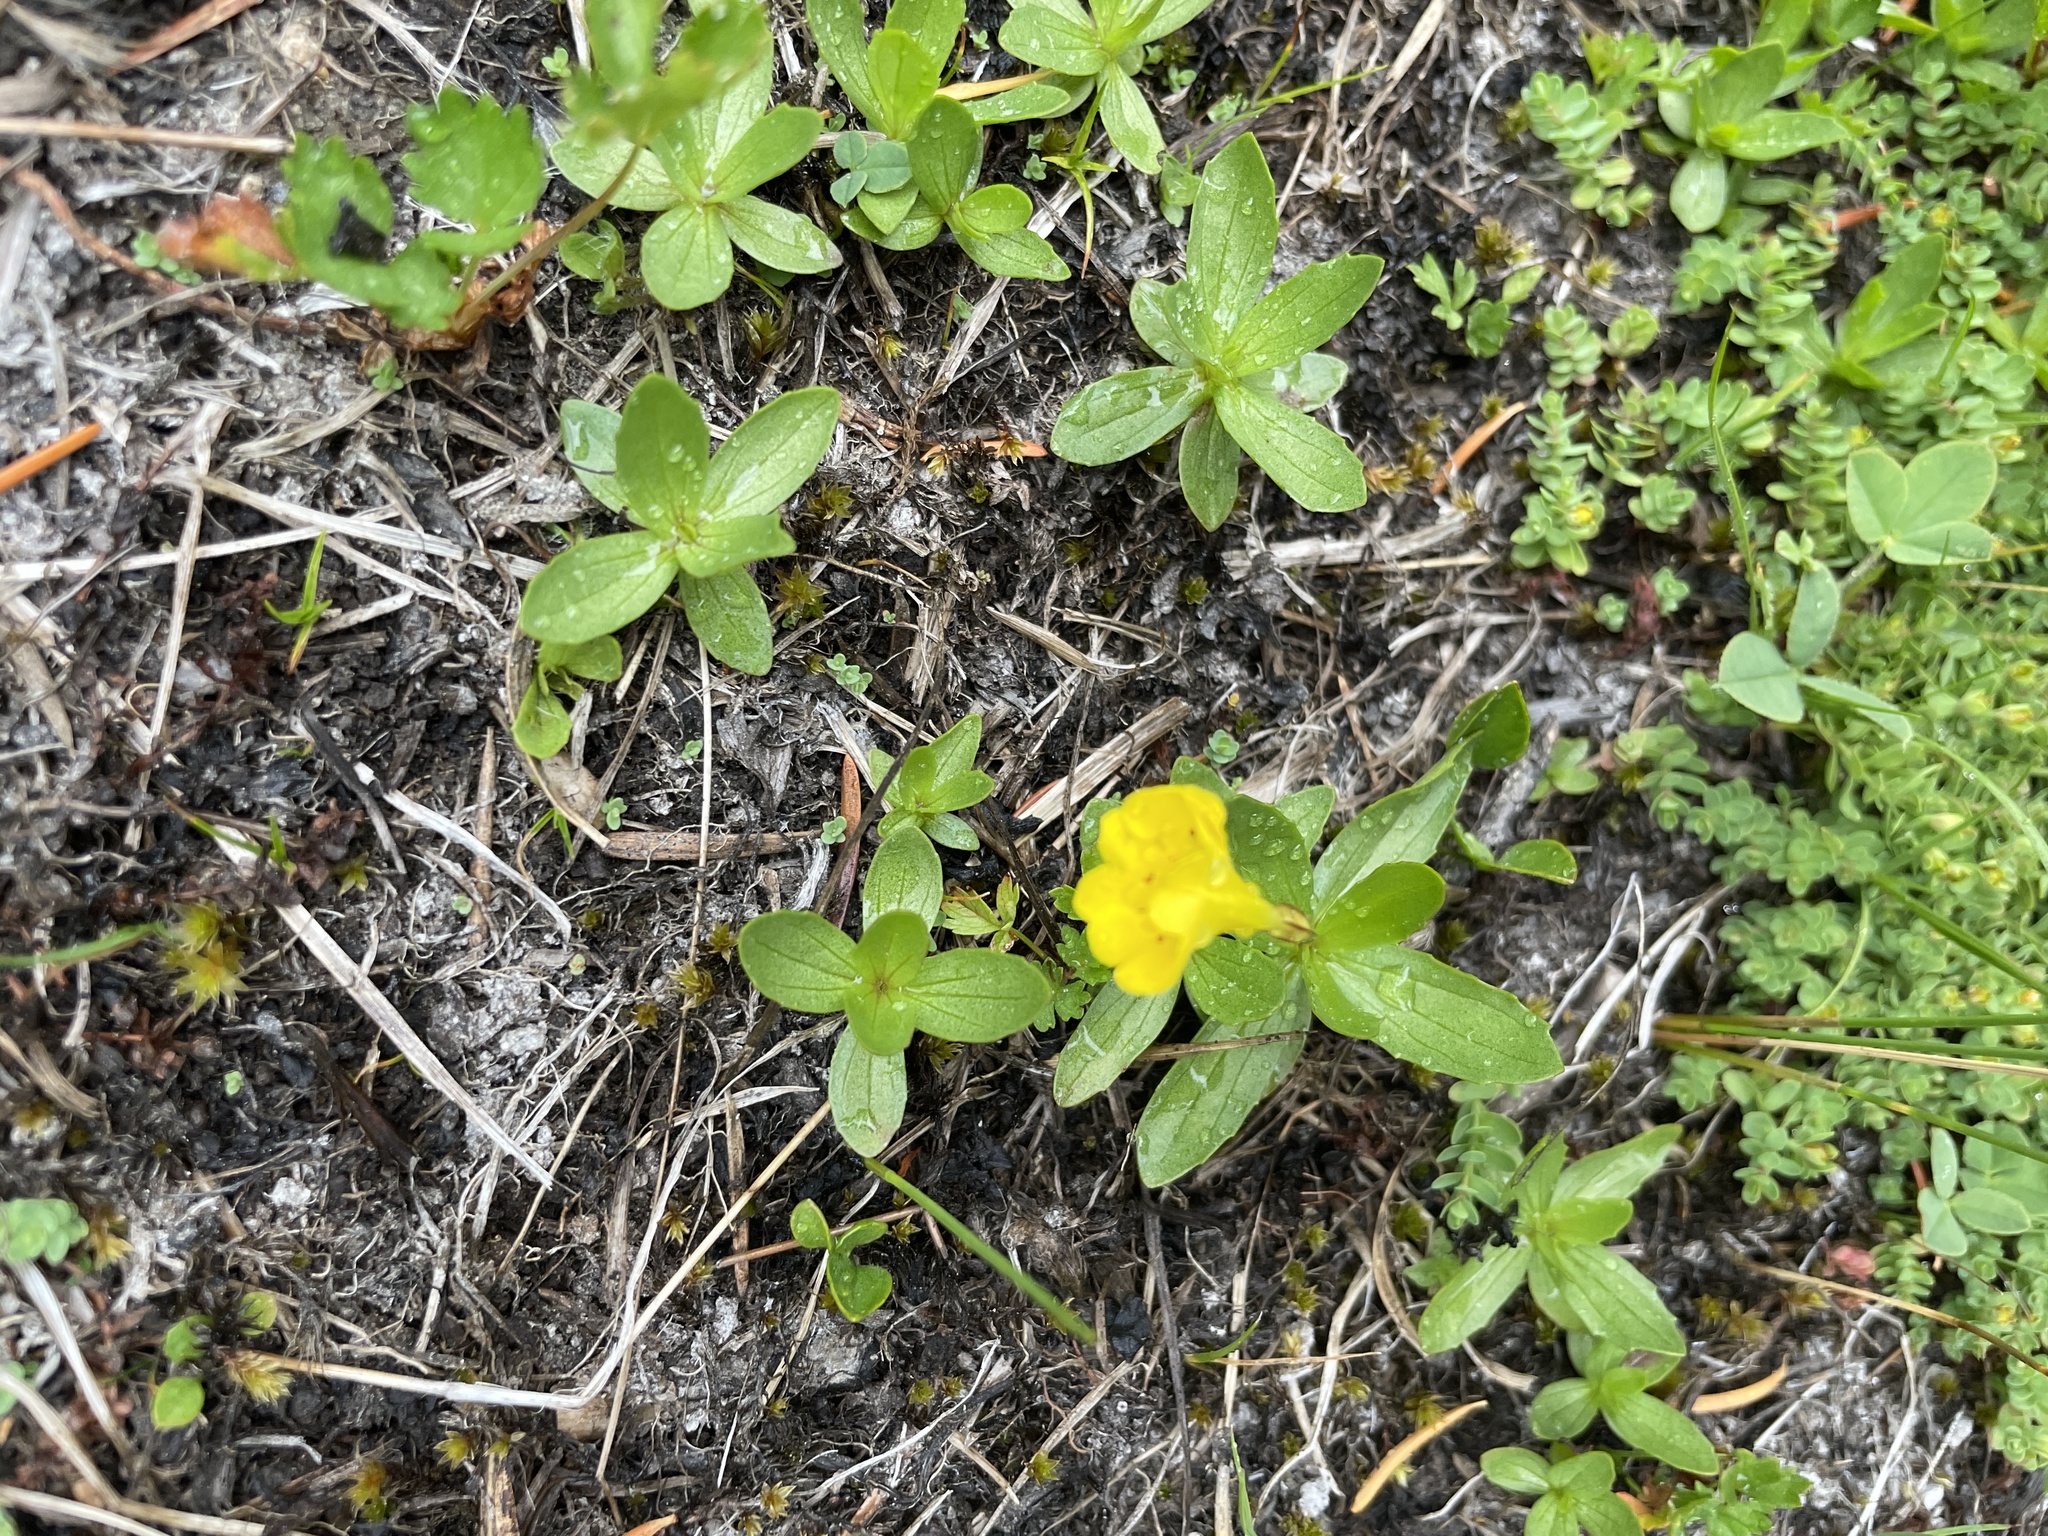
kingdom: Plantae
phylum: Tracheophyta
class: Magnoliopsida
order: Lamiales
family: Phrymaceae
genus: Erythranthe
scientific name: Erythranthe primuloides
